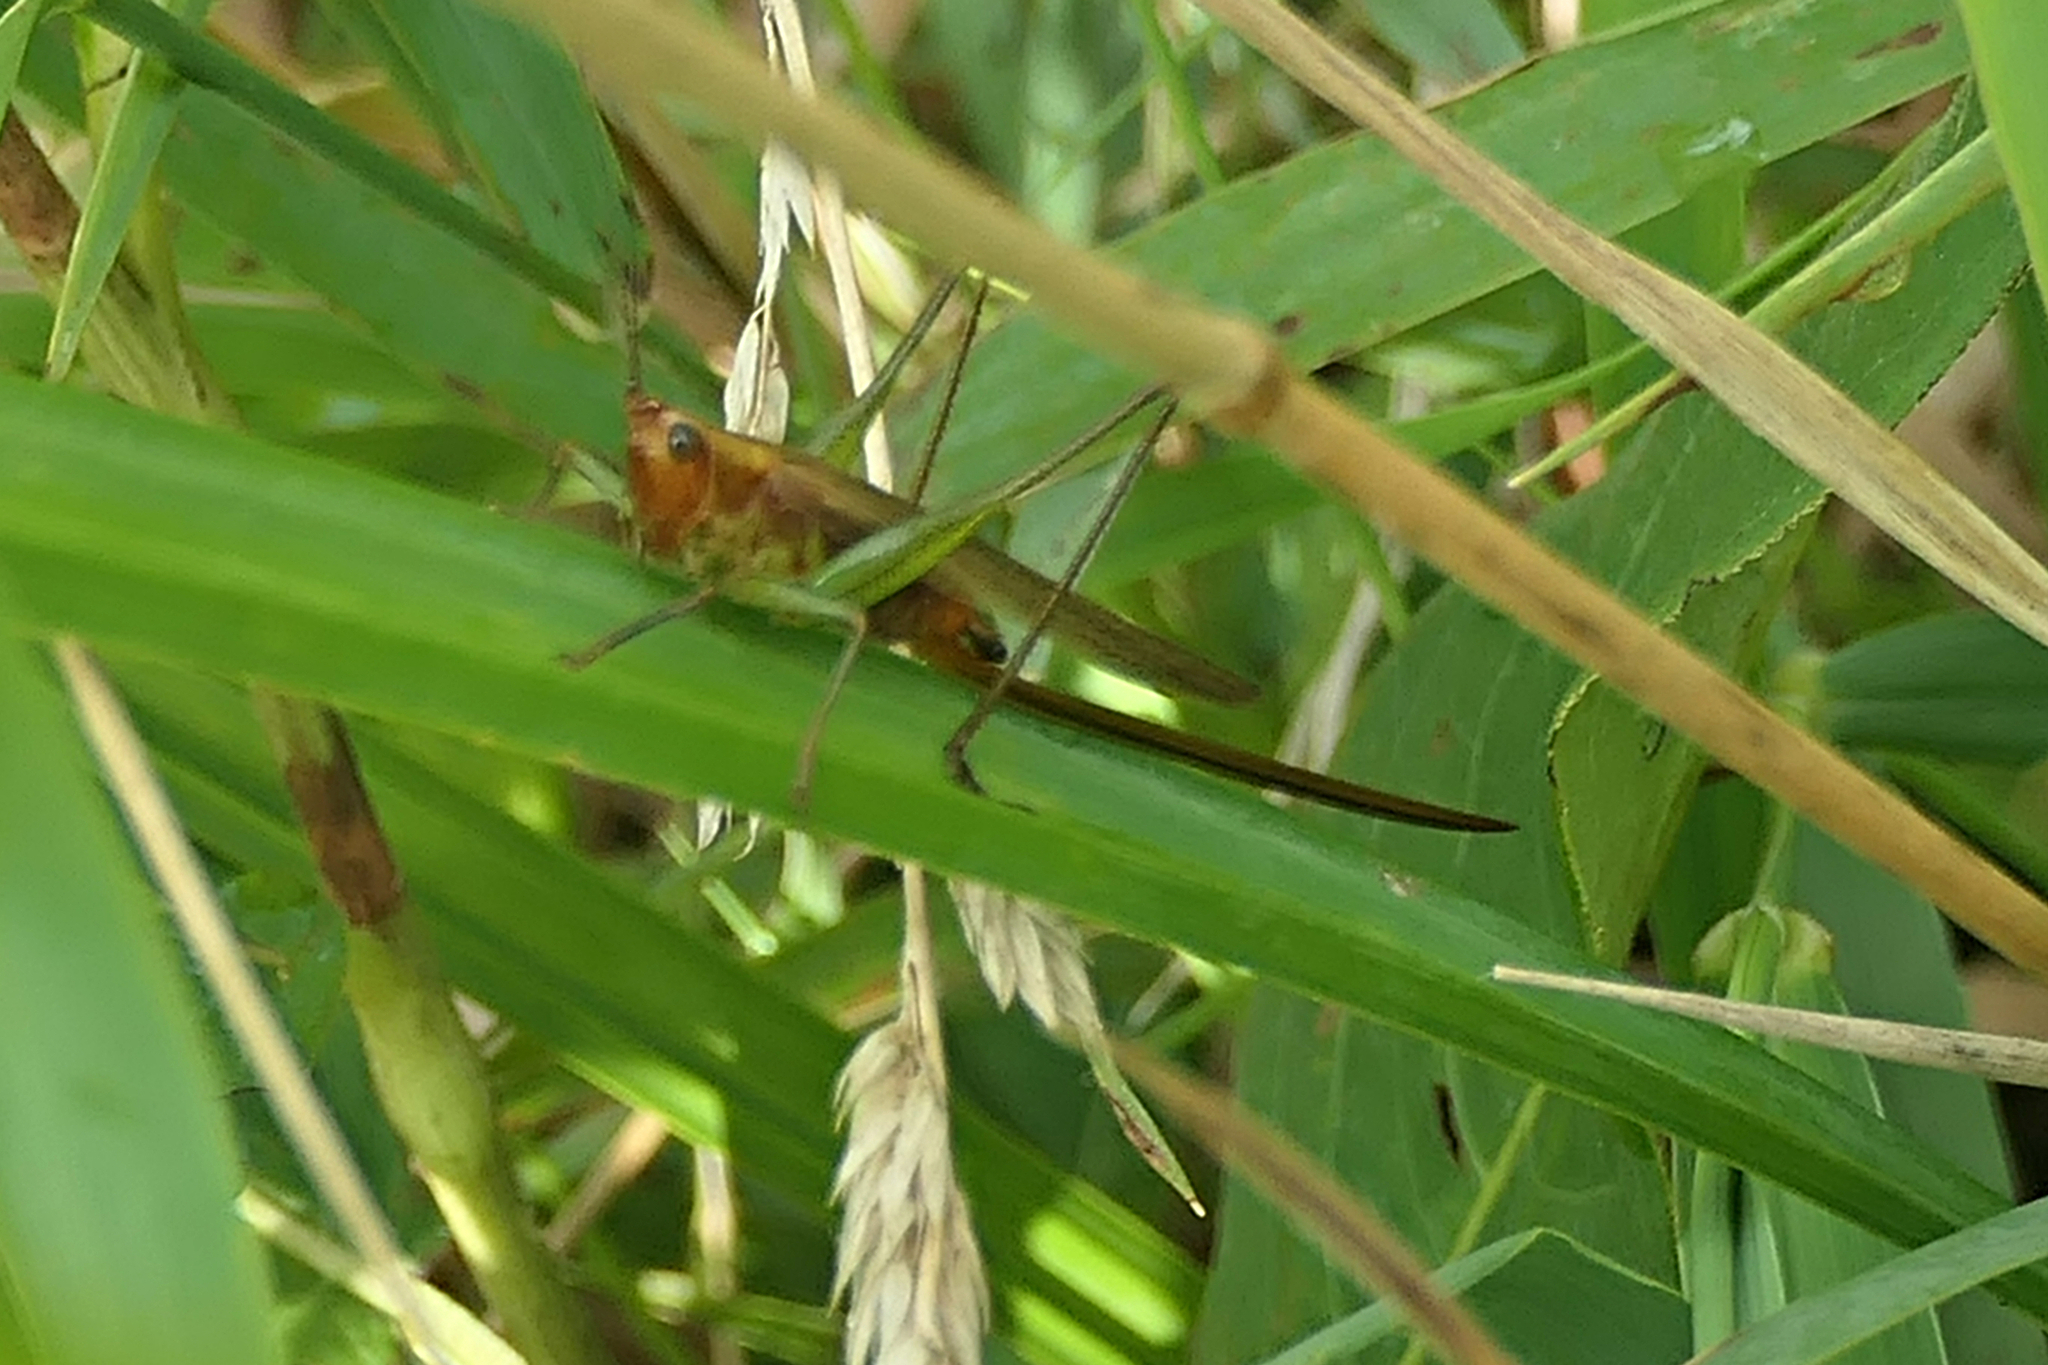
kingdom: Animalia
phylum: Arthropoda
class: Insecta
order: Orthoptera
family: Tettigoniidae
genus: Conocephalus
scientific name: Conocephalus attenuatus
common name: Long-tailed meadow katydid
